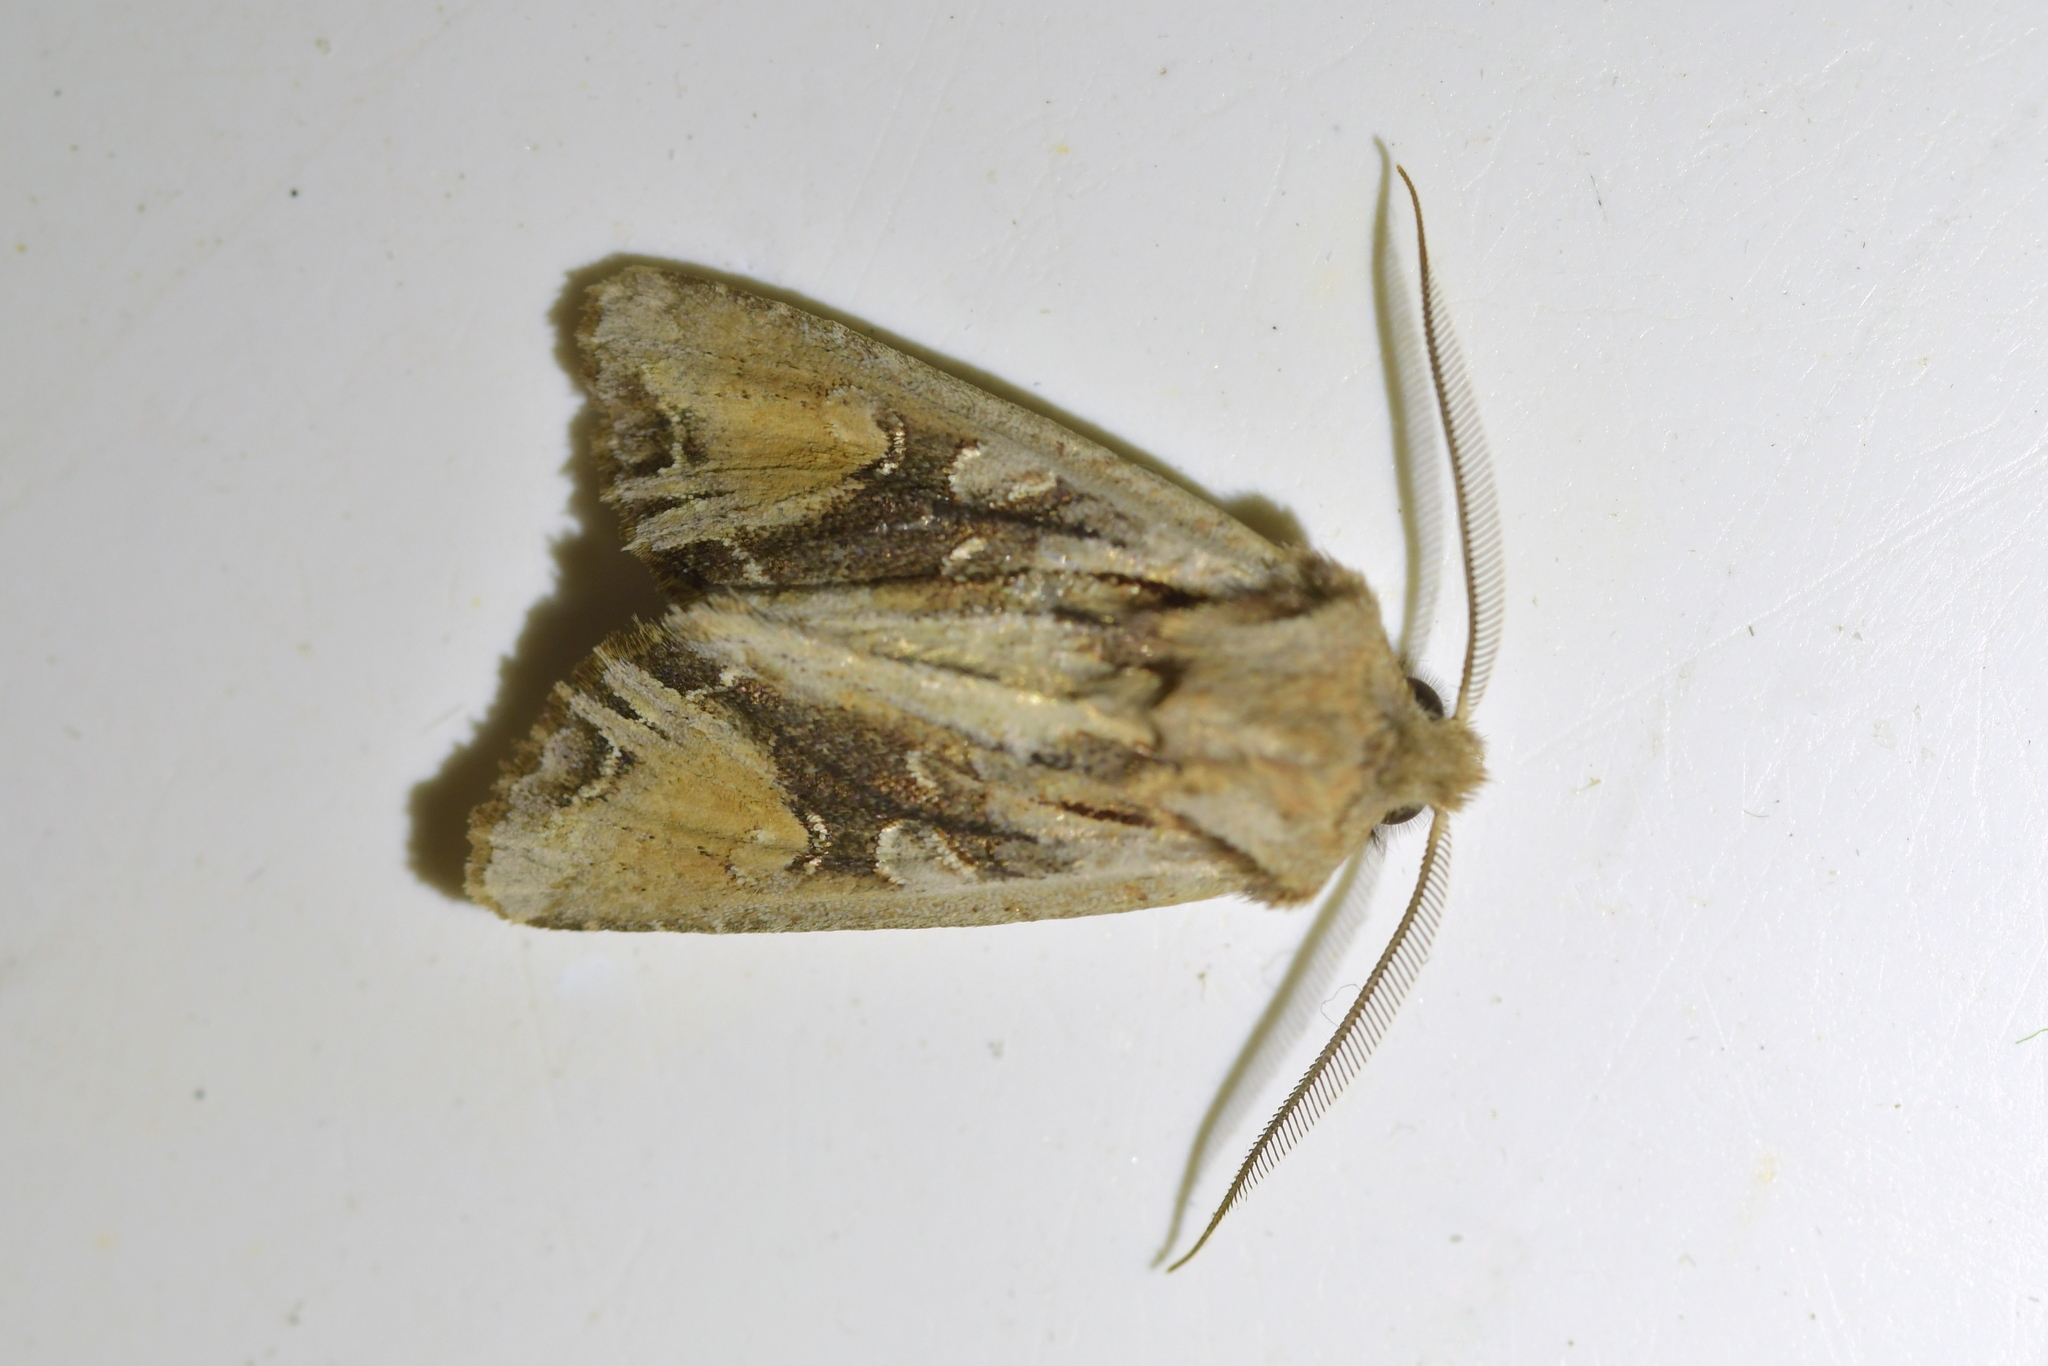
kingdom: Animalia
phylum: Arthropoda
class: Insecta
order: Lepidoptera
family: Noctuidae
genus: Ichneutica
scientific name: Ichneutica
